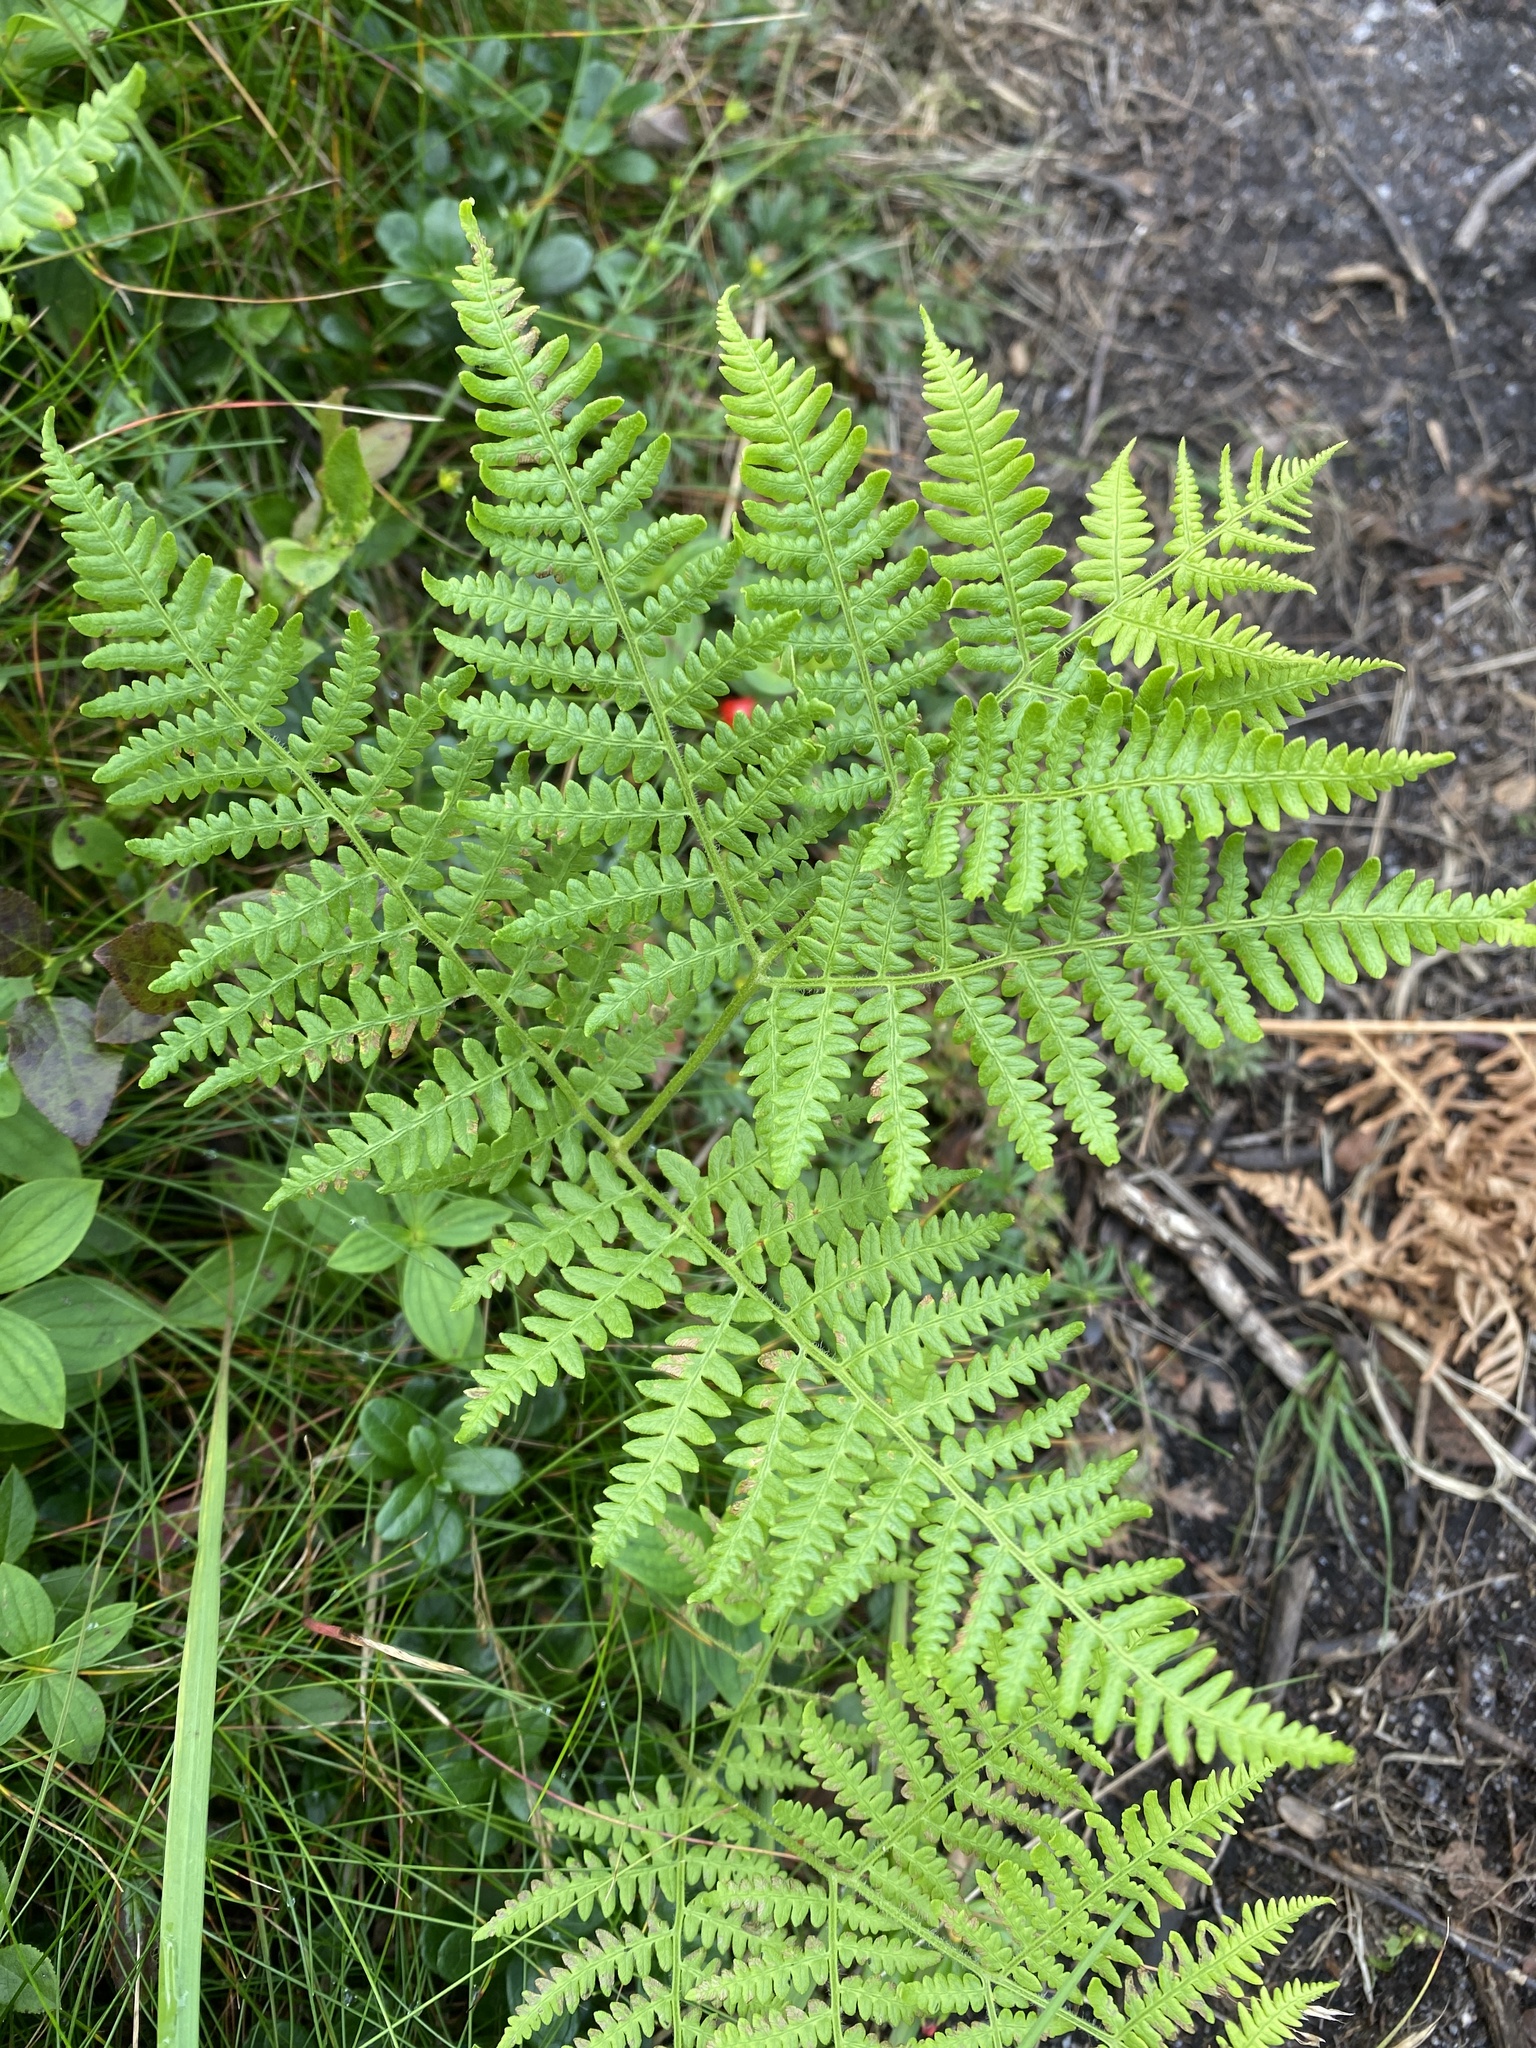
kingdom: Plantae
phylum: Tracheophyta
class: Polypodiopsida
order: Polypodiales
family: Dennstaedtiaceae
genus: Pteridium
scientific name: Pteridium aquilinum
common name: Bracken
